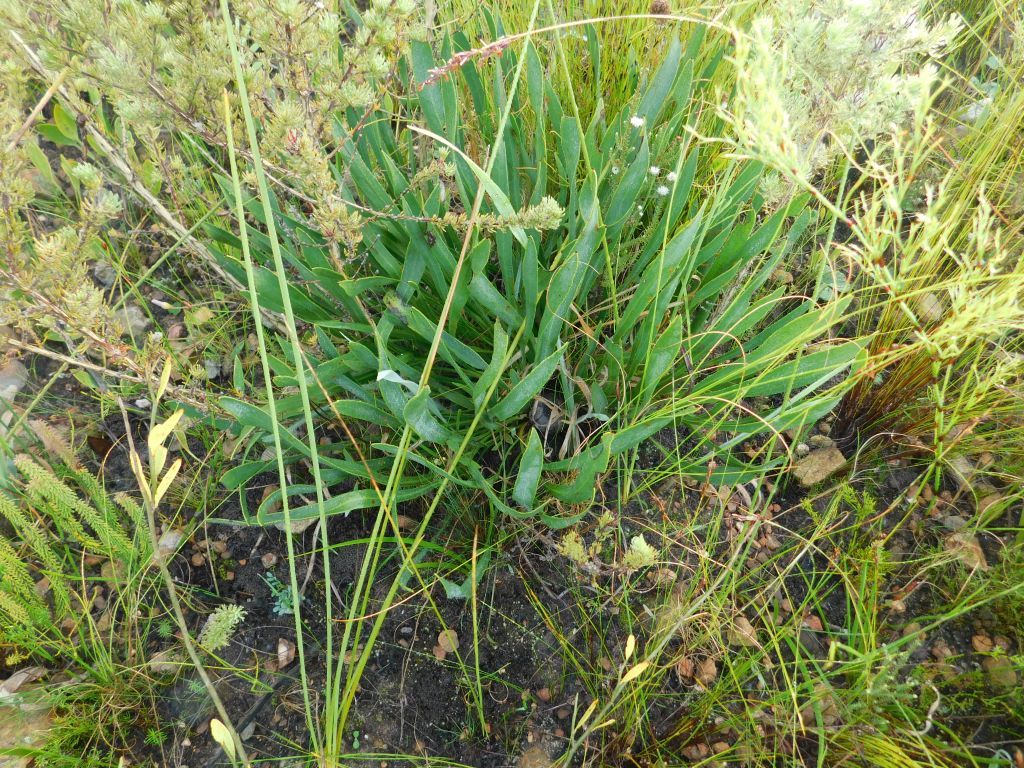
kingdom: Plantae
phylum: Tracheophyta
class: Magnoliopsida
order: Proteales
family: Proteaceae
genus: Protea
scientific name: Protea scabra
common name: Sandpaper-leaf sugarbush
